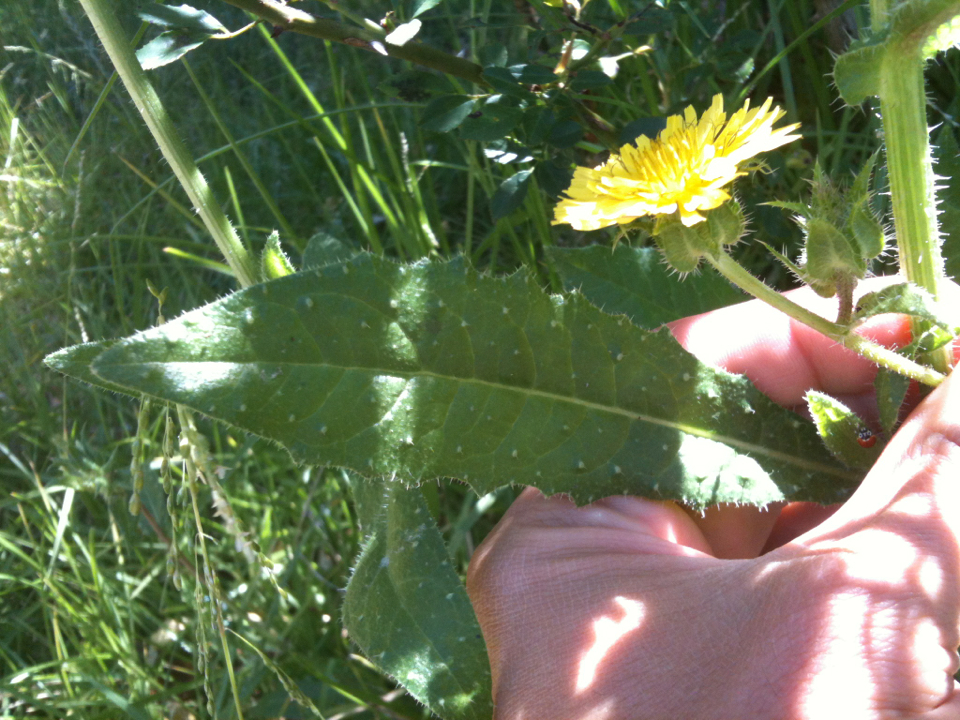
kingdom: Plantae
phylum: Tracheophyta
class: Magnoliopsida
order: Asterales
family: Asteraceae
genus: Helminthotheca
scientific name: Helminthotheca echioides
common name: Ox-tongue
